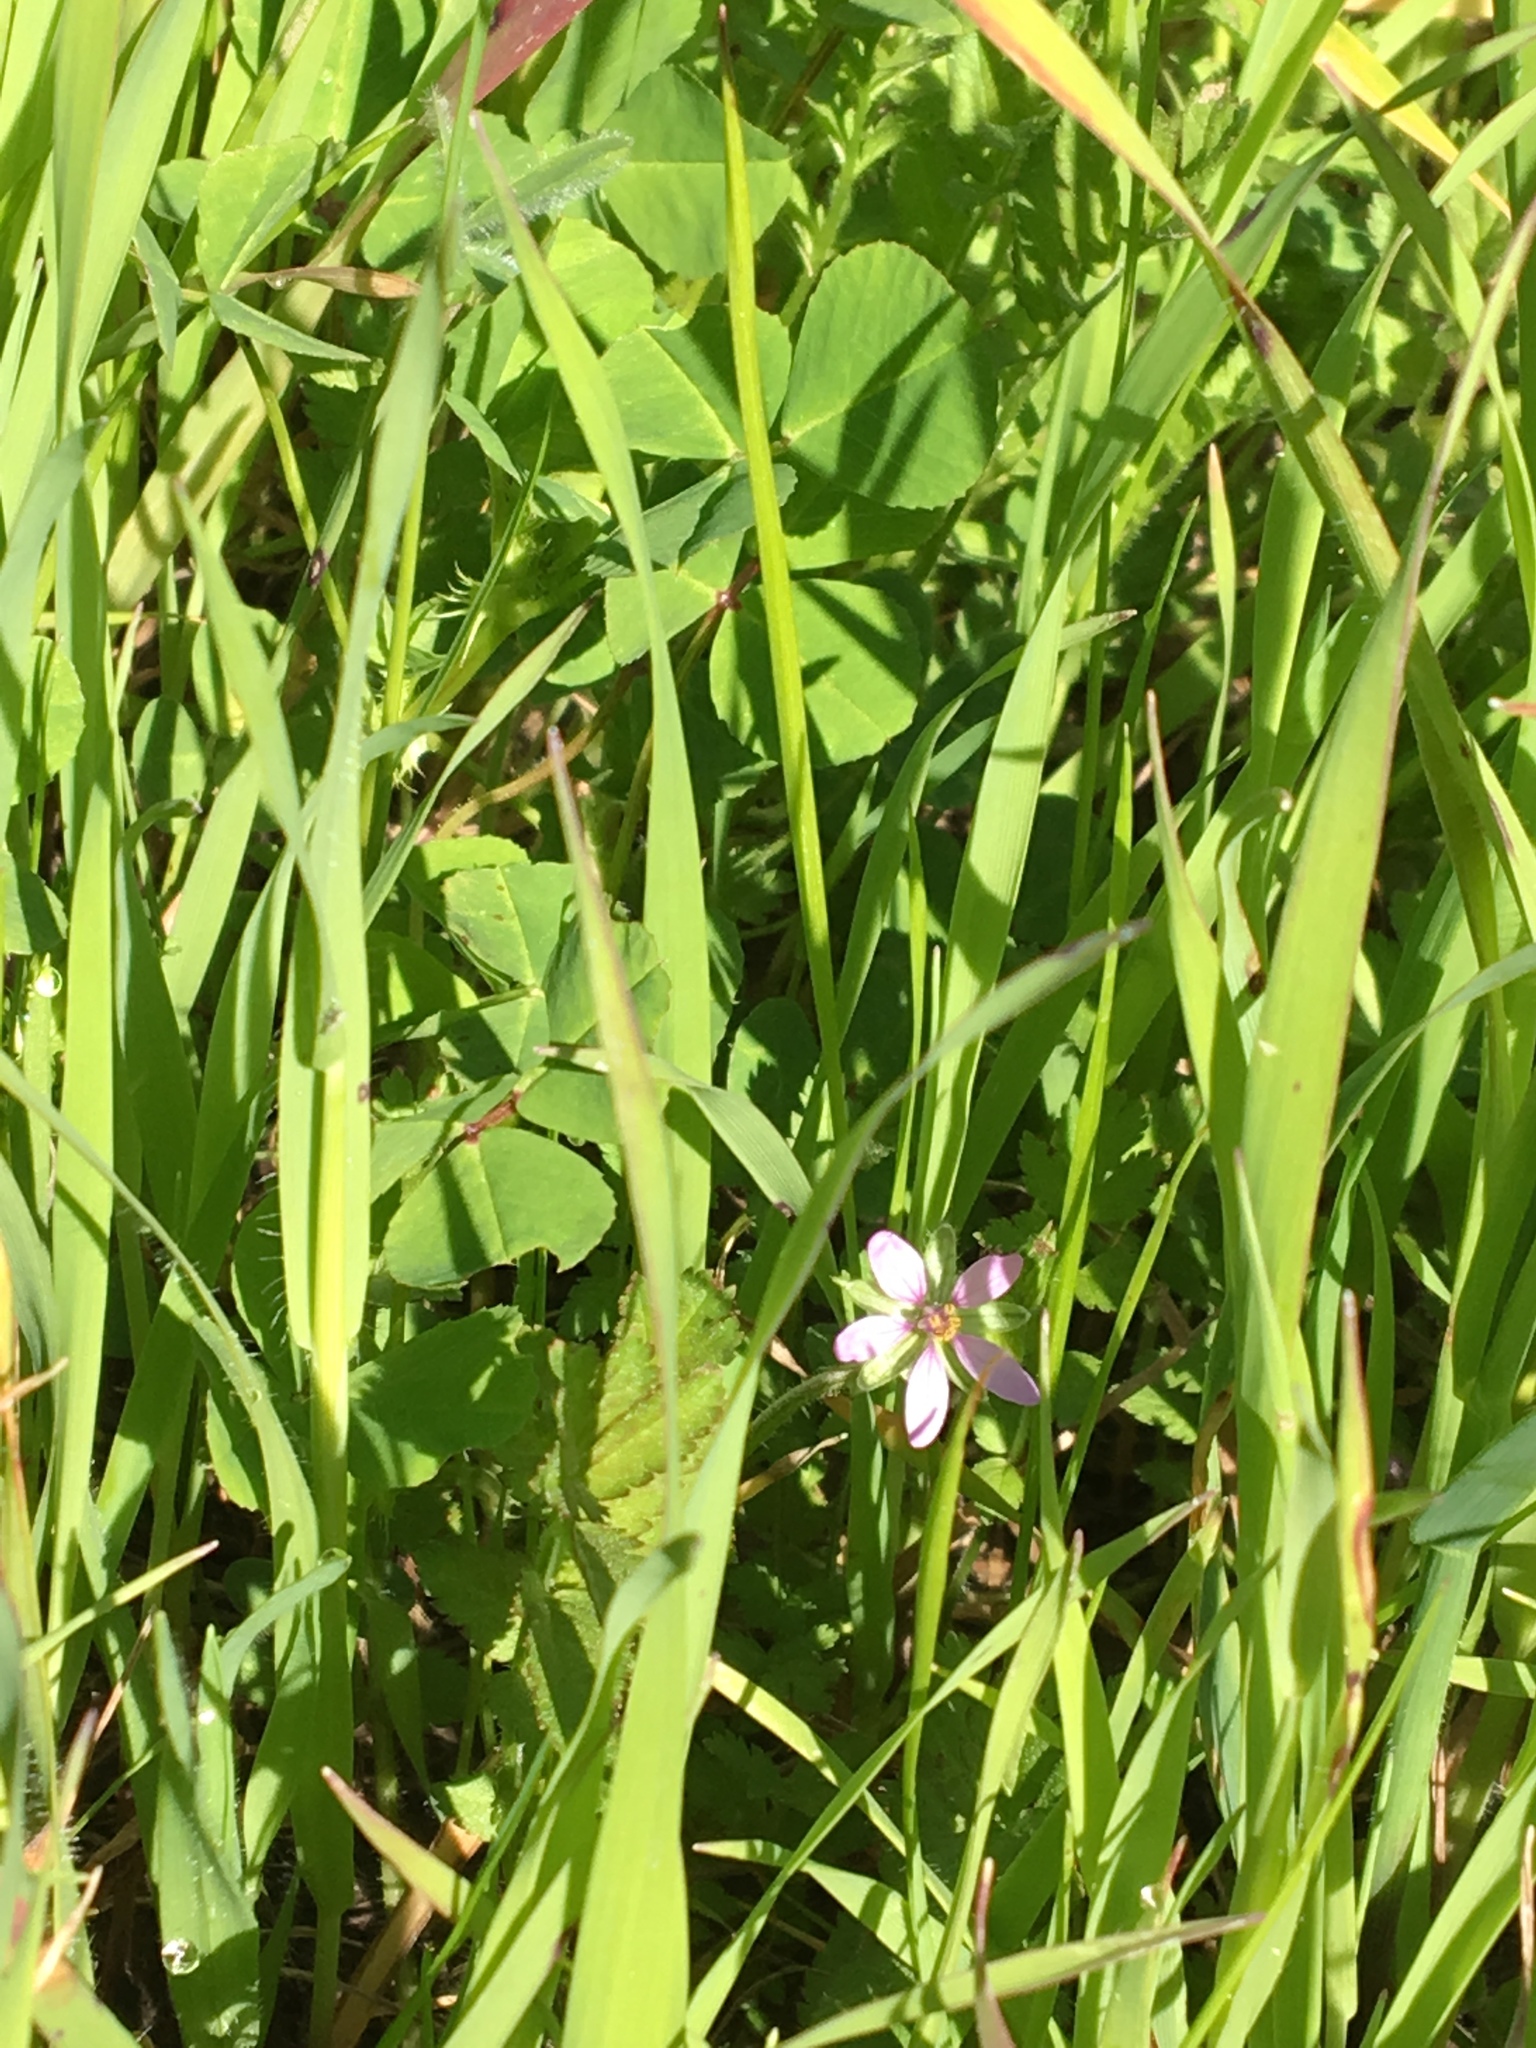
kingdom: Plantae
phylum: Tracheophyta
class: Magnoliopsida
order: Geraniales
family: Geraniaceae
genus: Erodium
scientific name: Erodium moschatum
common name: Musk stork's-bill
